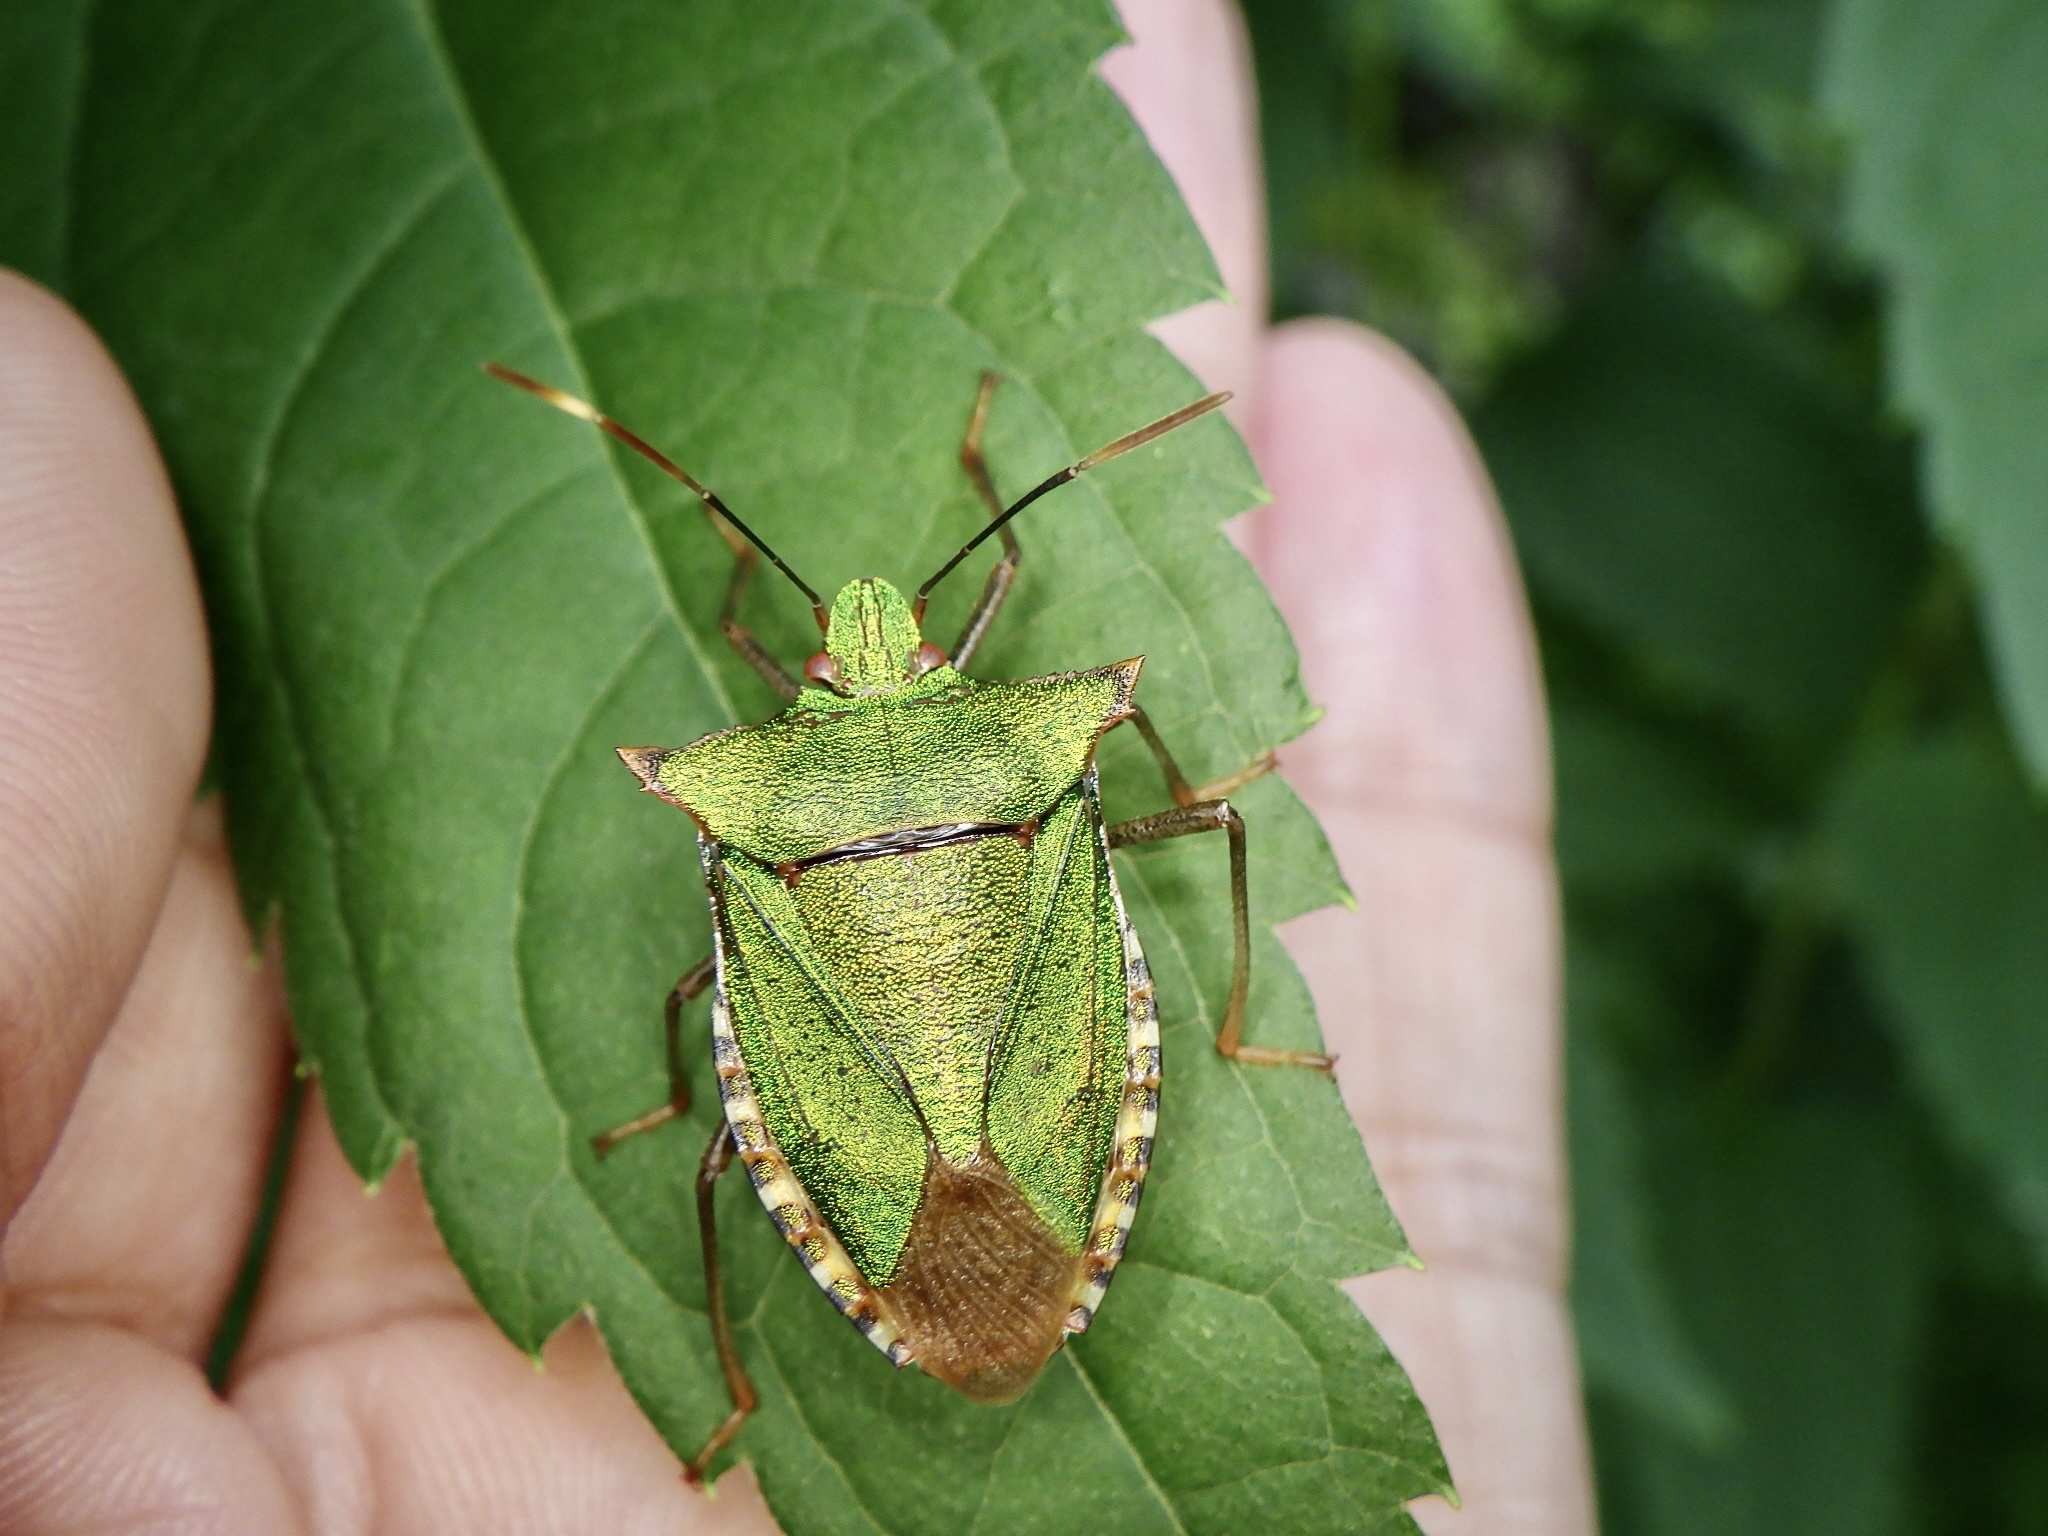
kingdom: Animalia
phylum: Arthropoda
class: Insecta
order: Hemiptera
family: Pentatomidae
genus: Pentatoma
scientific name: Pentatoma japonica
